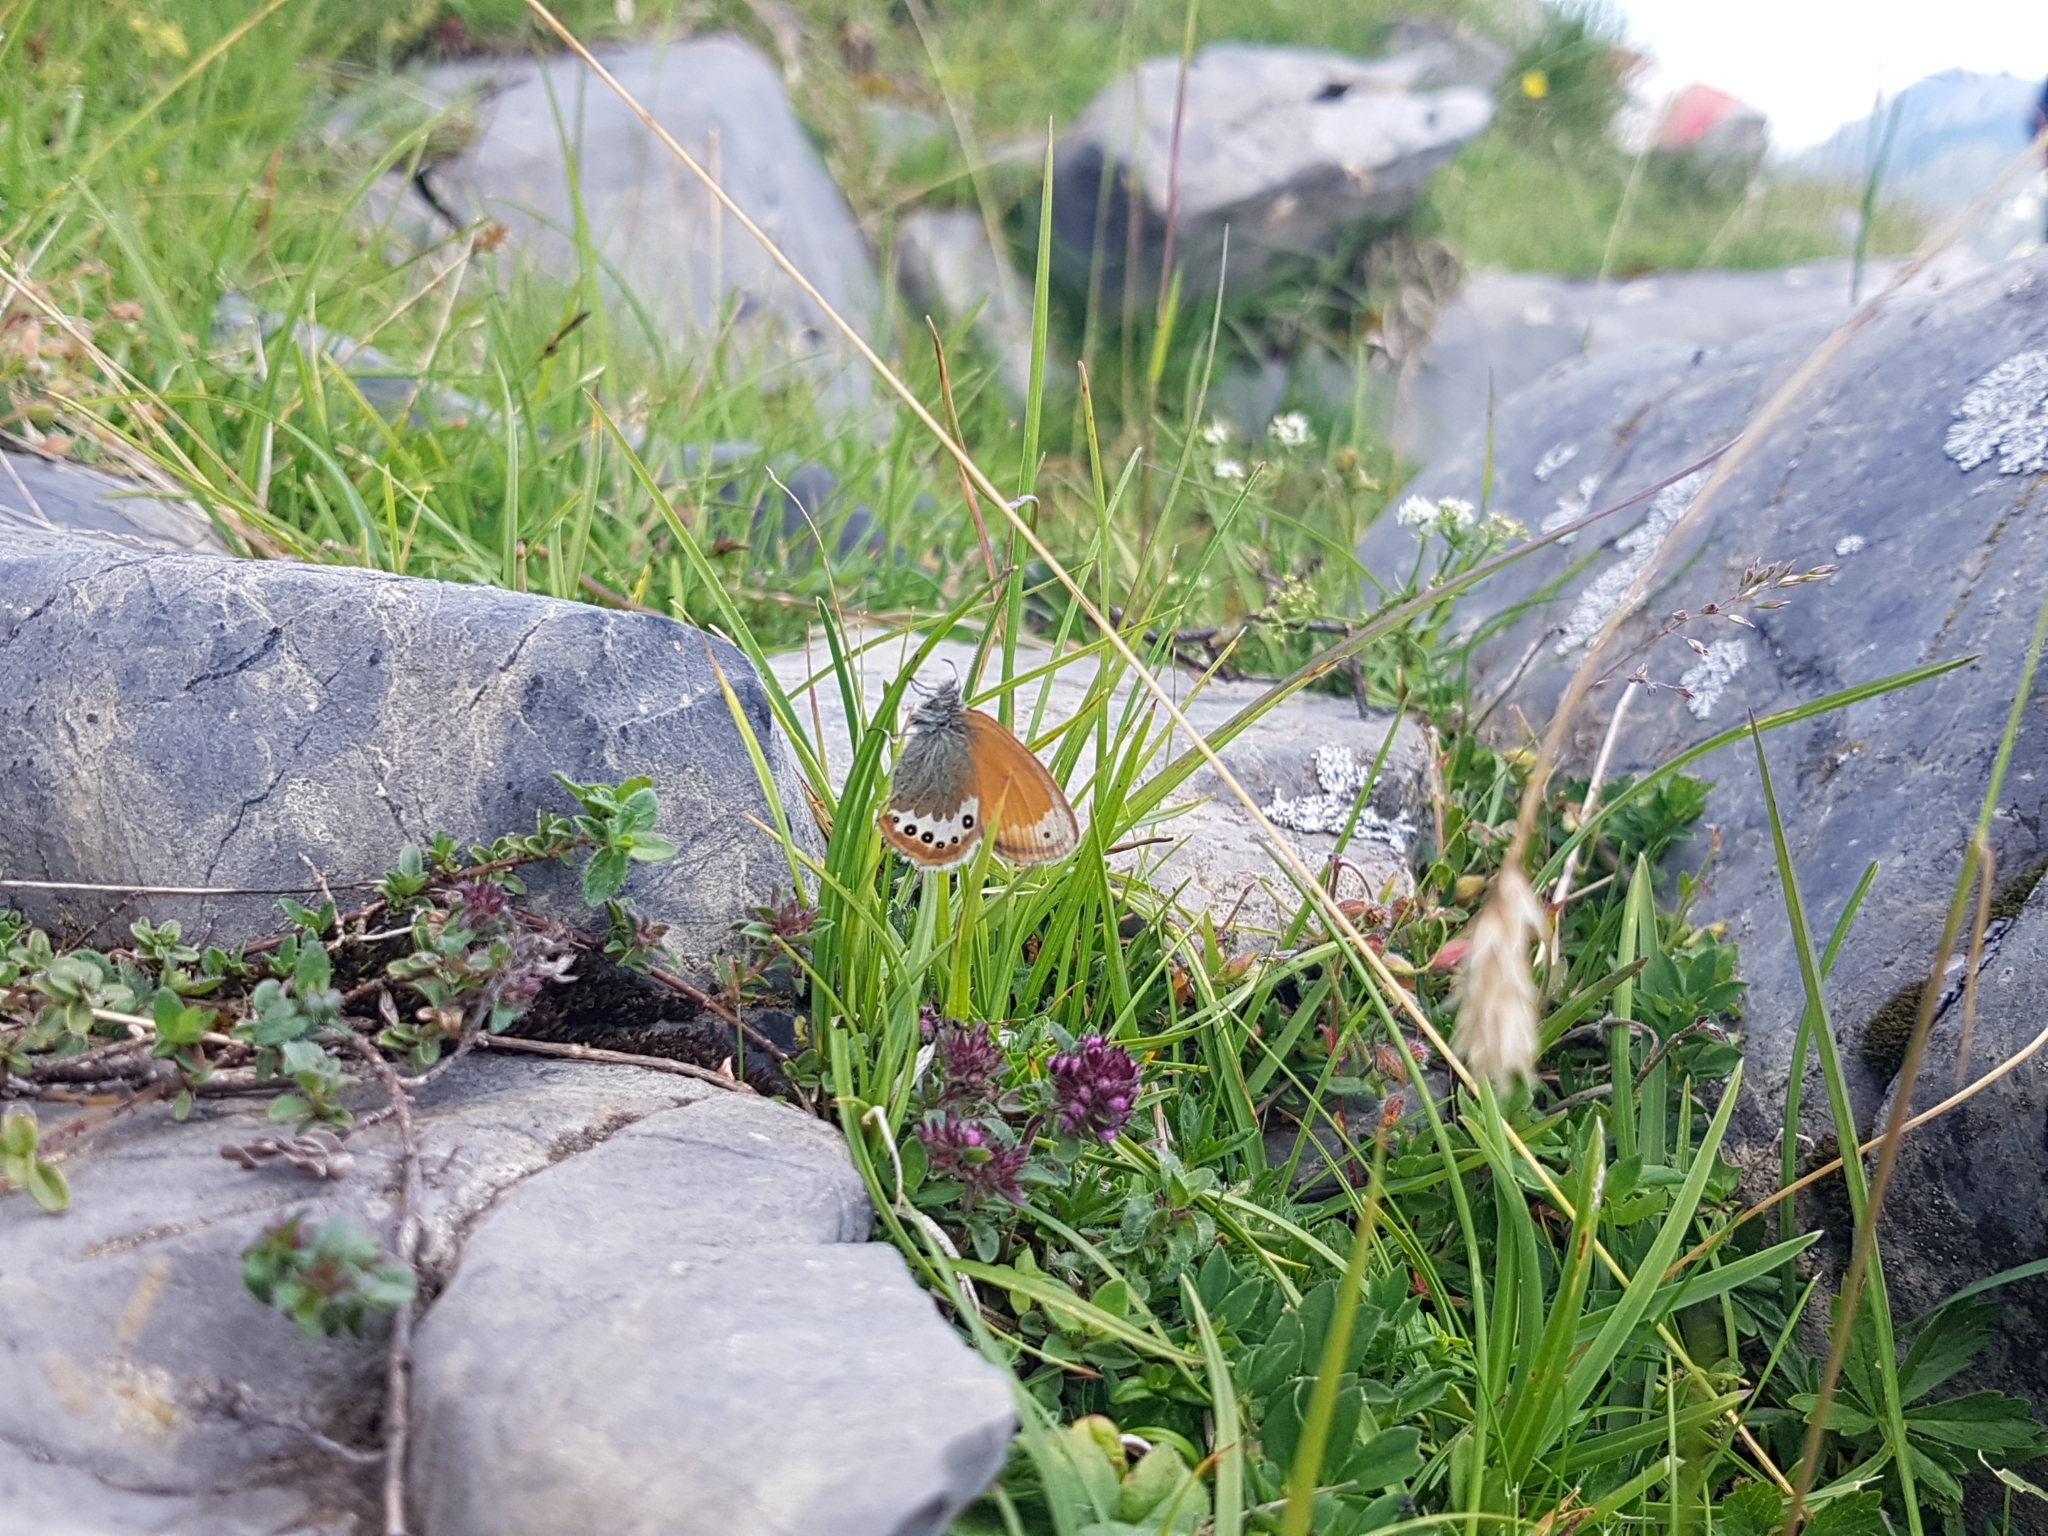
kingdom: Animalia
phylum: Arthropoda
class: Insecta
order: Lepidoptera
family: Nymphalidae
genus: Coenonympha
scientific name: Coenonympha
